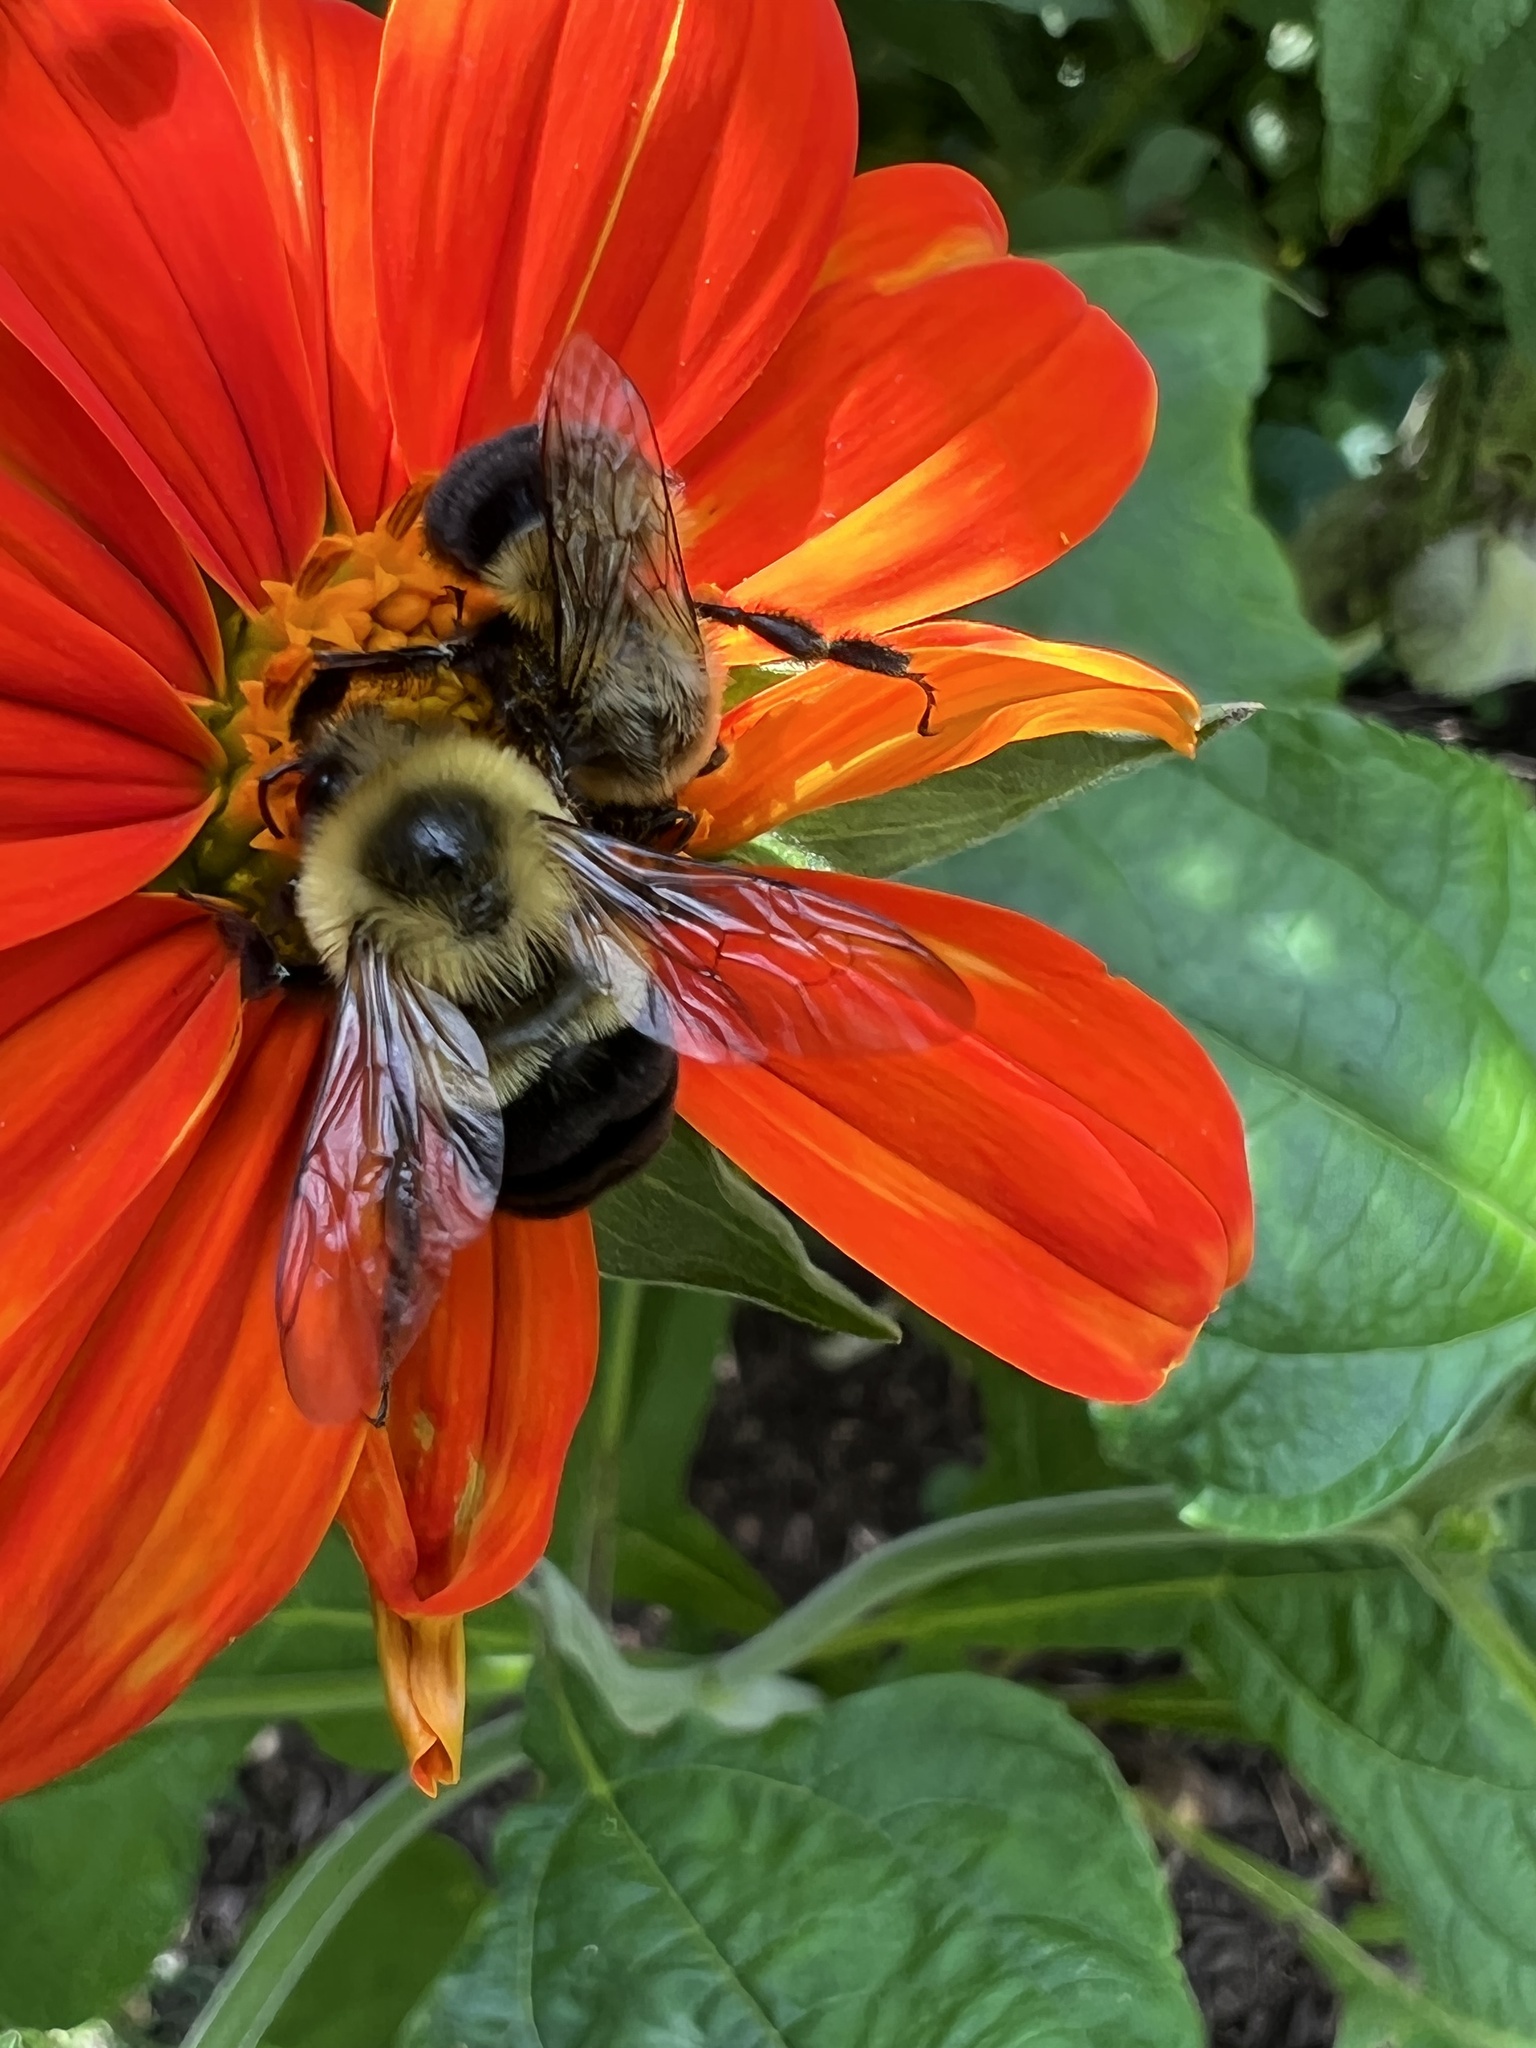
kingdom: Animalia
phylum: Arthropoda
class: Insecta
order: Hymenoptera
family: Apidae
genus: Bombus
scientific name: Bombus impatiens
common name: Common eastern bumble bee
